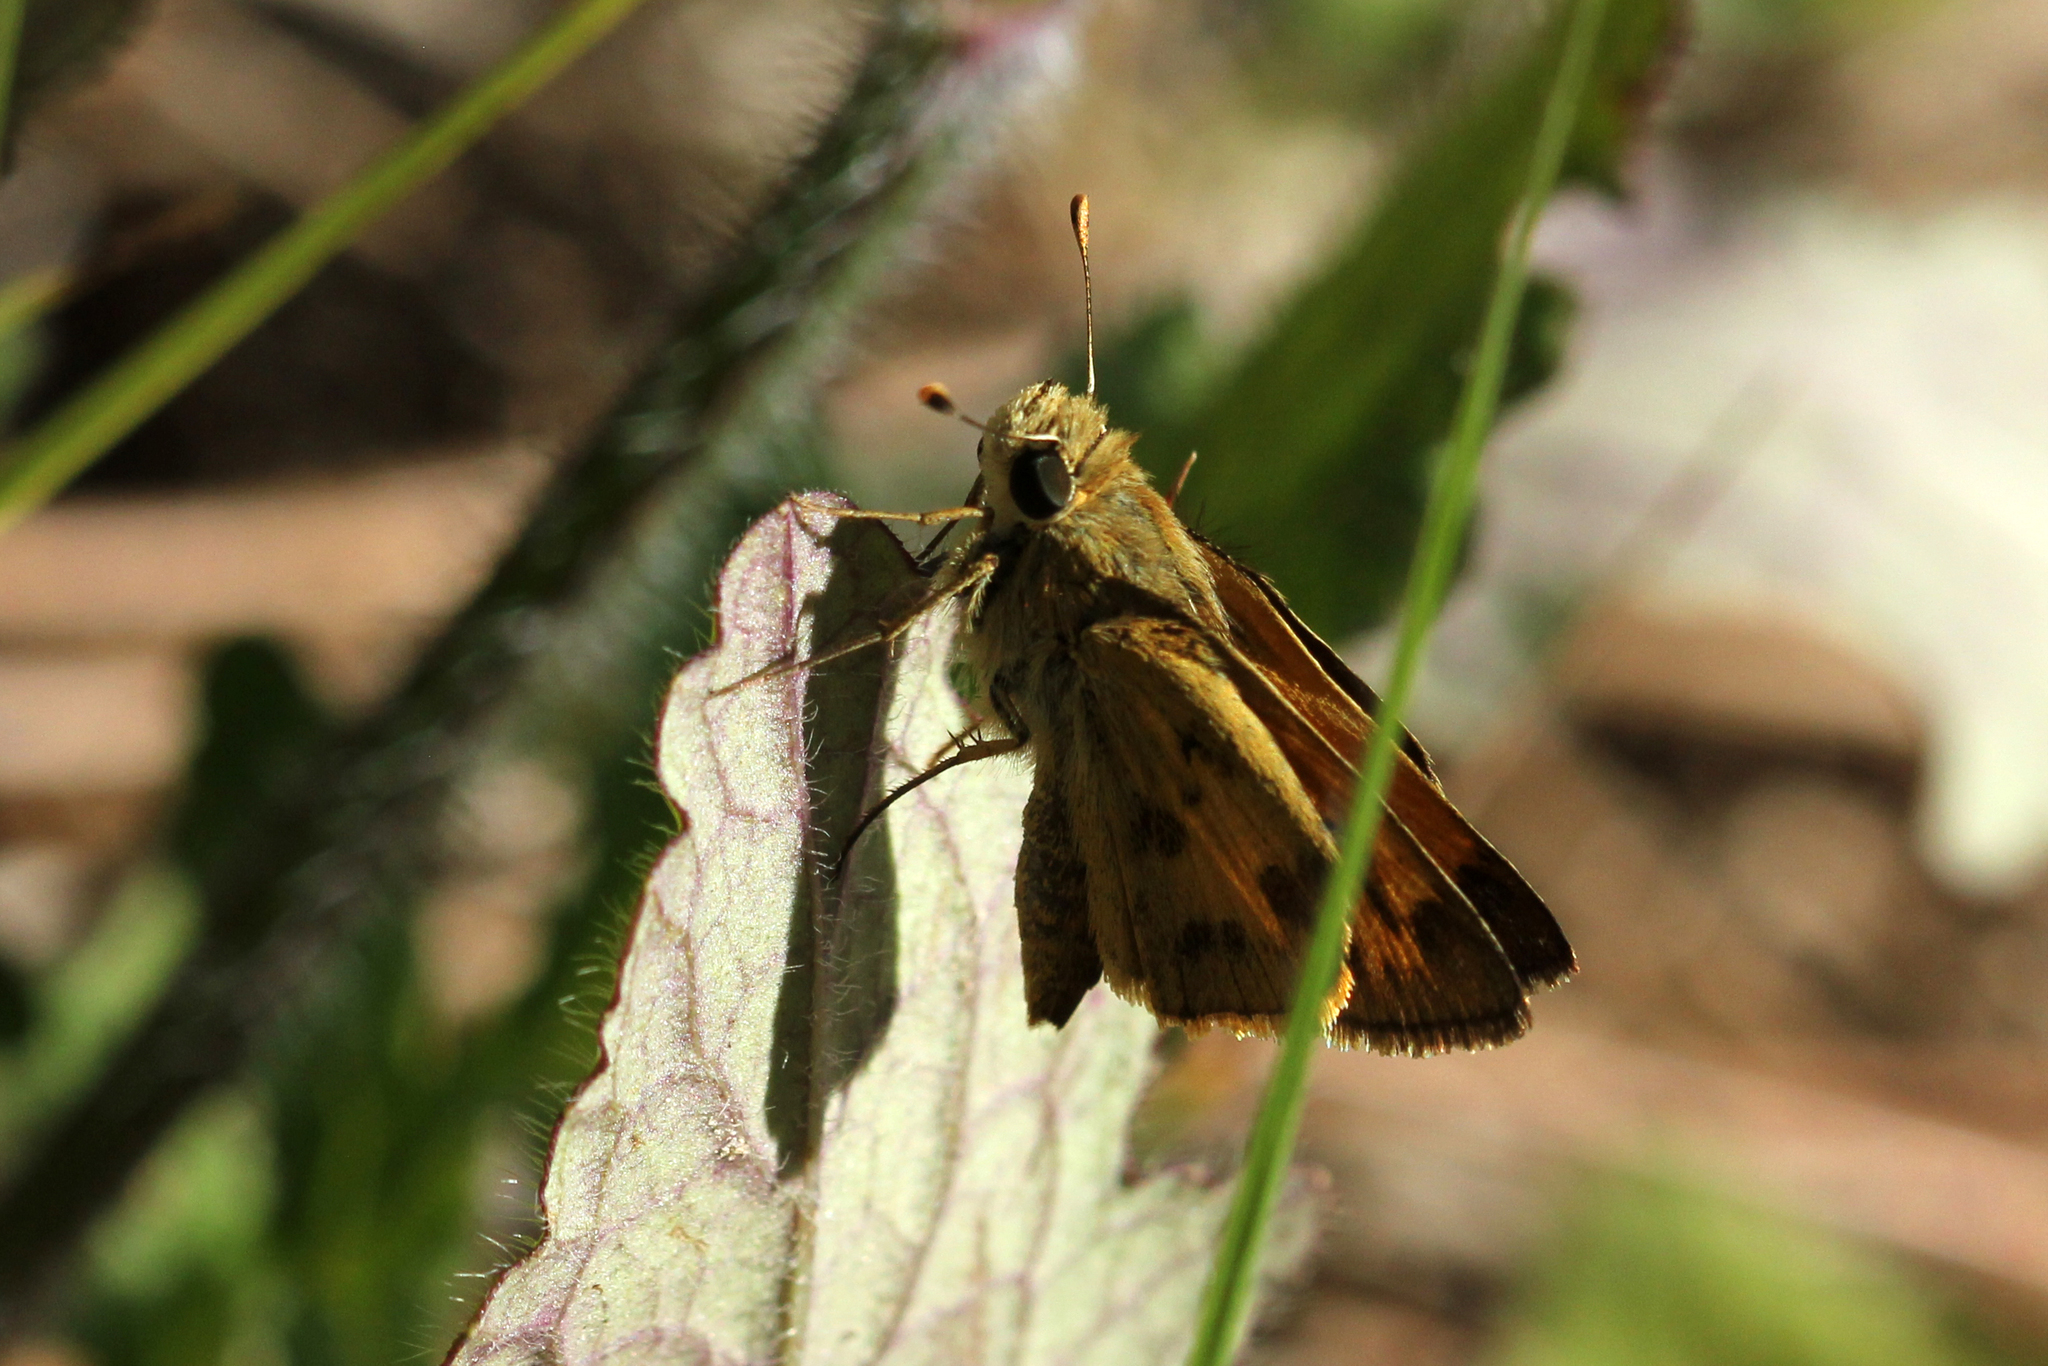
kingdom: Animalia
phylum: Arthropoda
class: Insecta
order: Lepidoptera
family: Hesperiidae
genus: Polites
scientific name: Polites vibex
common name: Whirlabout
